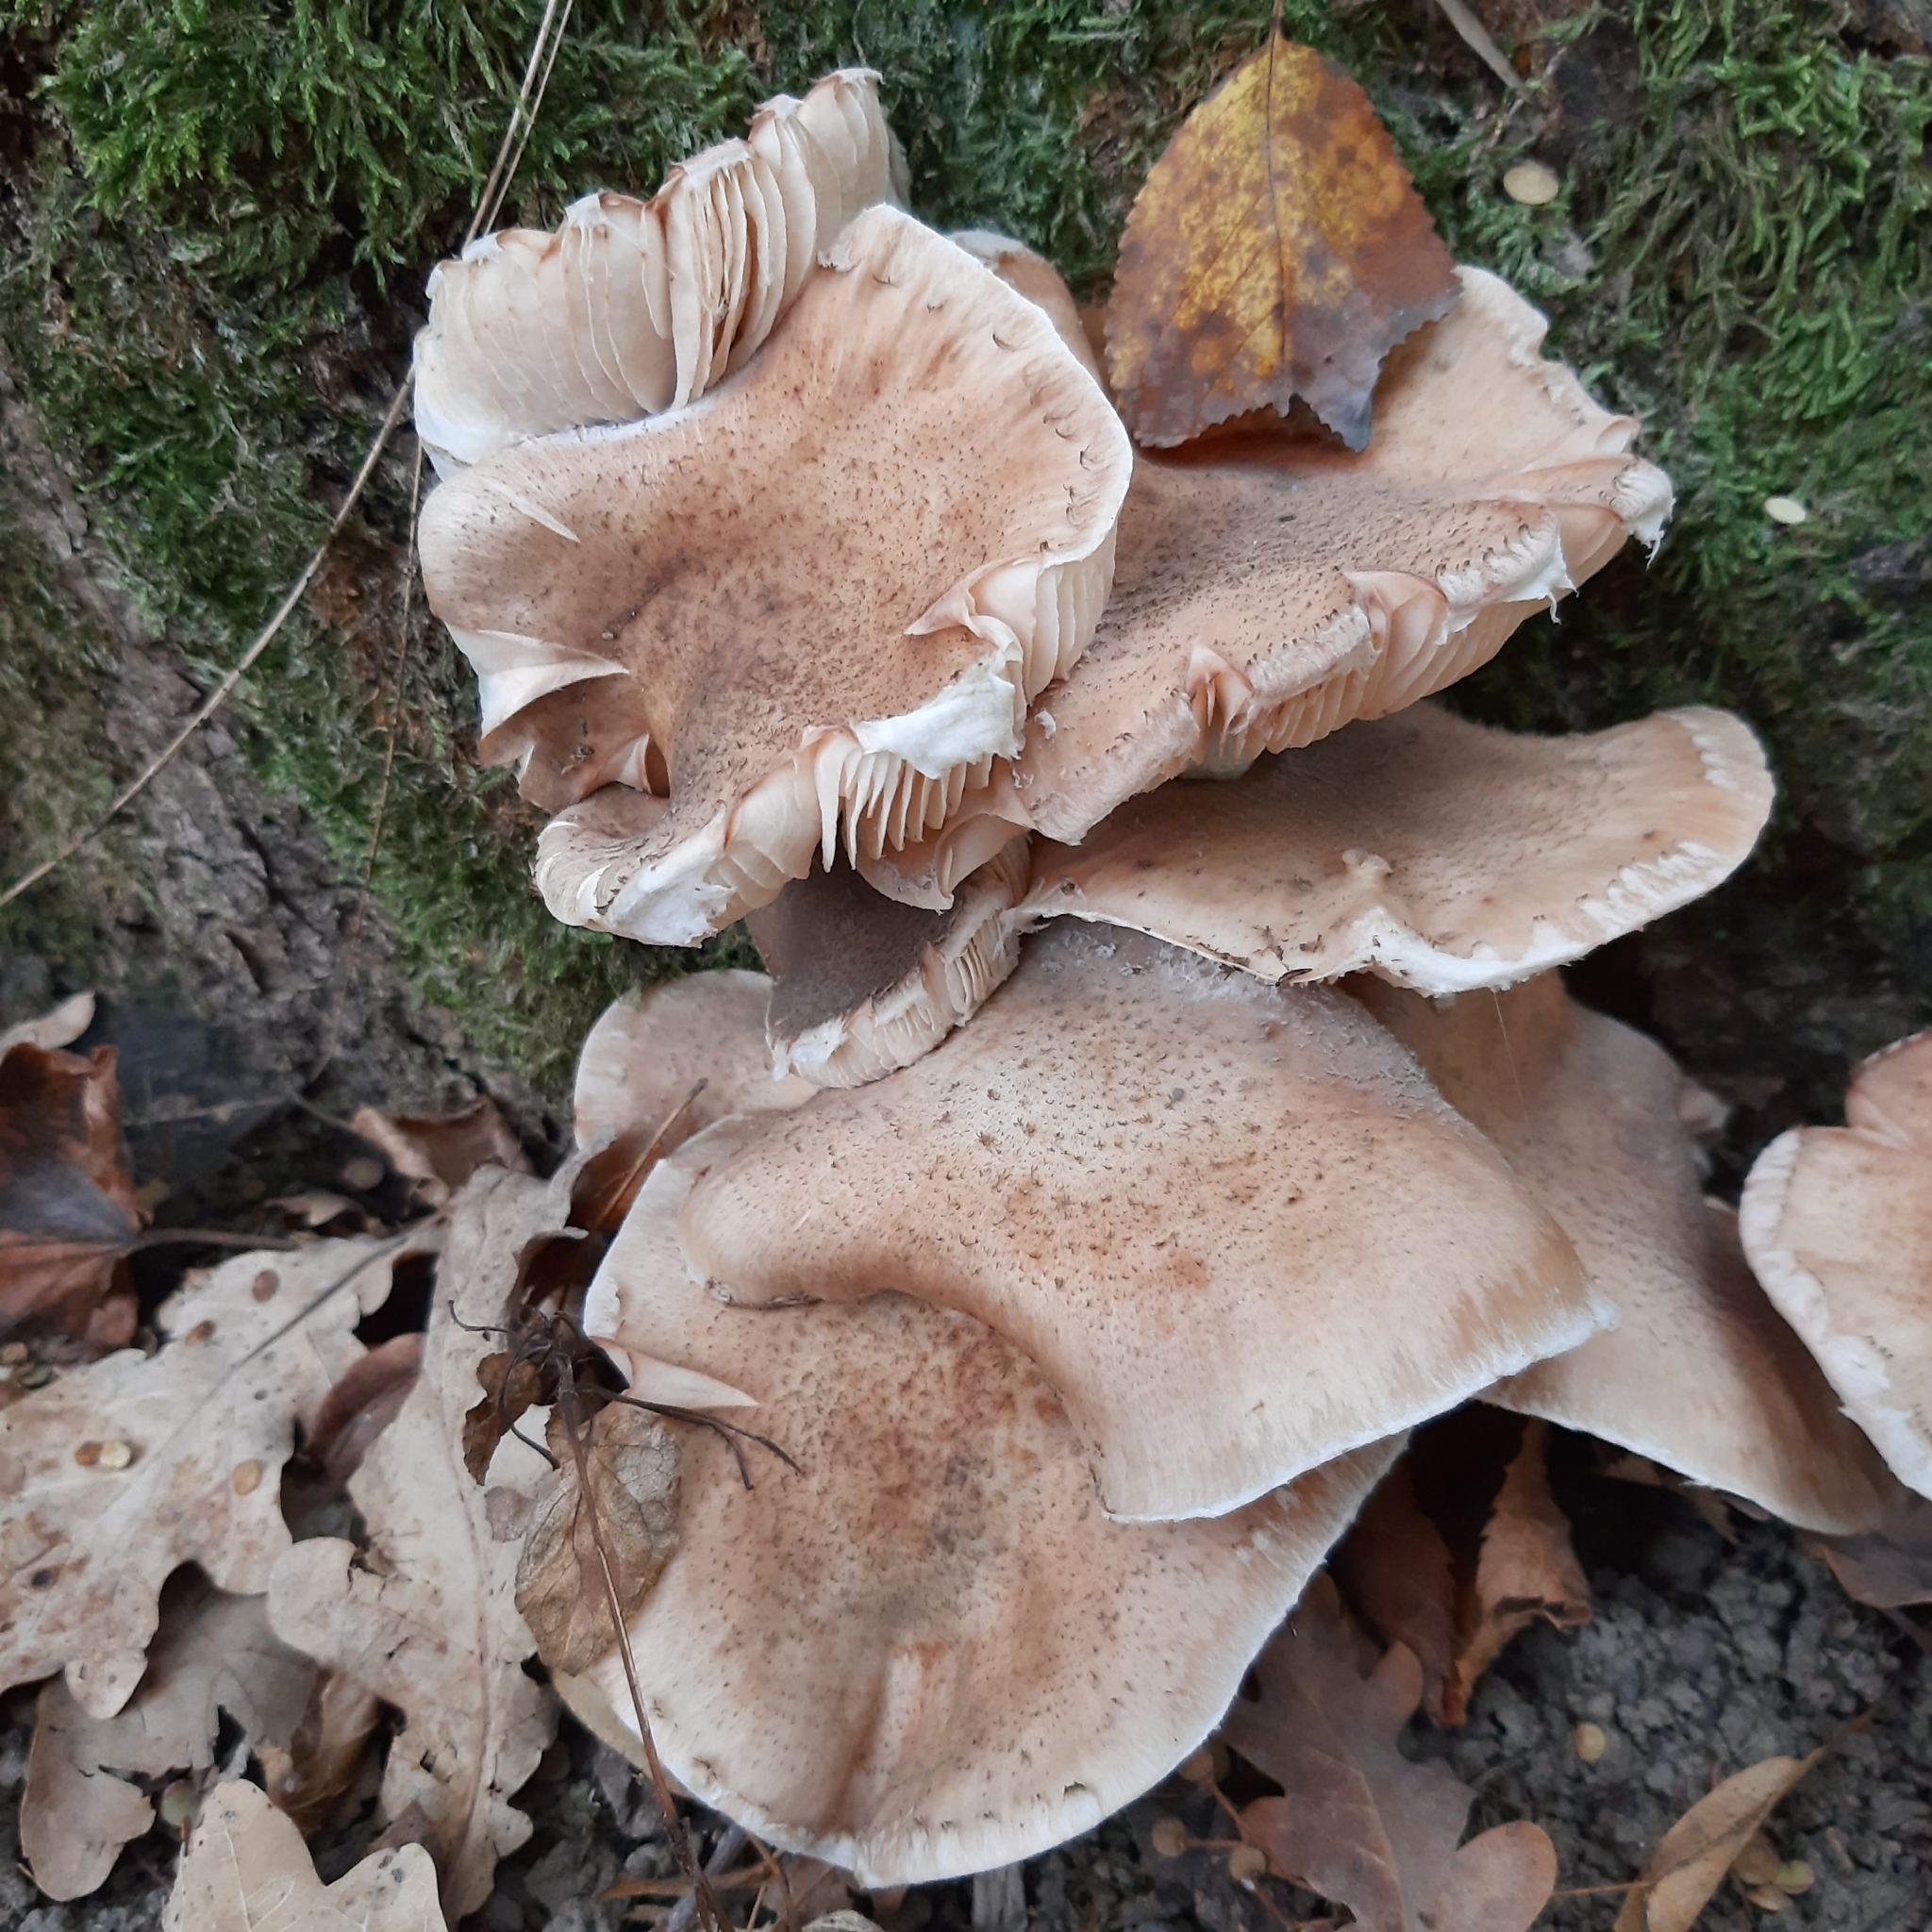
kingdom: Fungi
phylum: Basidiomycota
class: Agaricomycetes
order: Agaricales
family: Physalacriaceae
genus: Armillaria
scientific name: Armillaria
